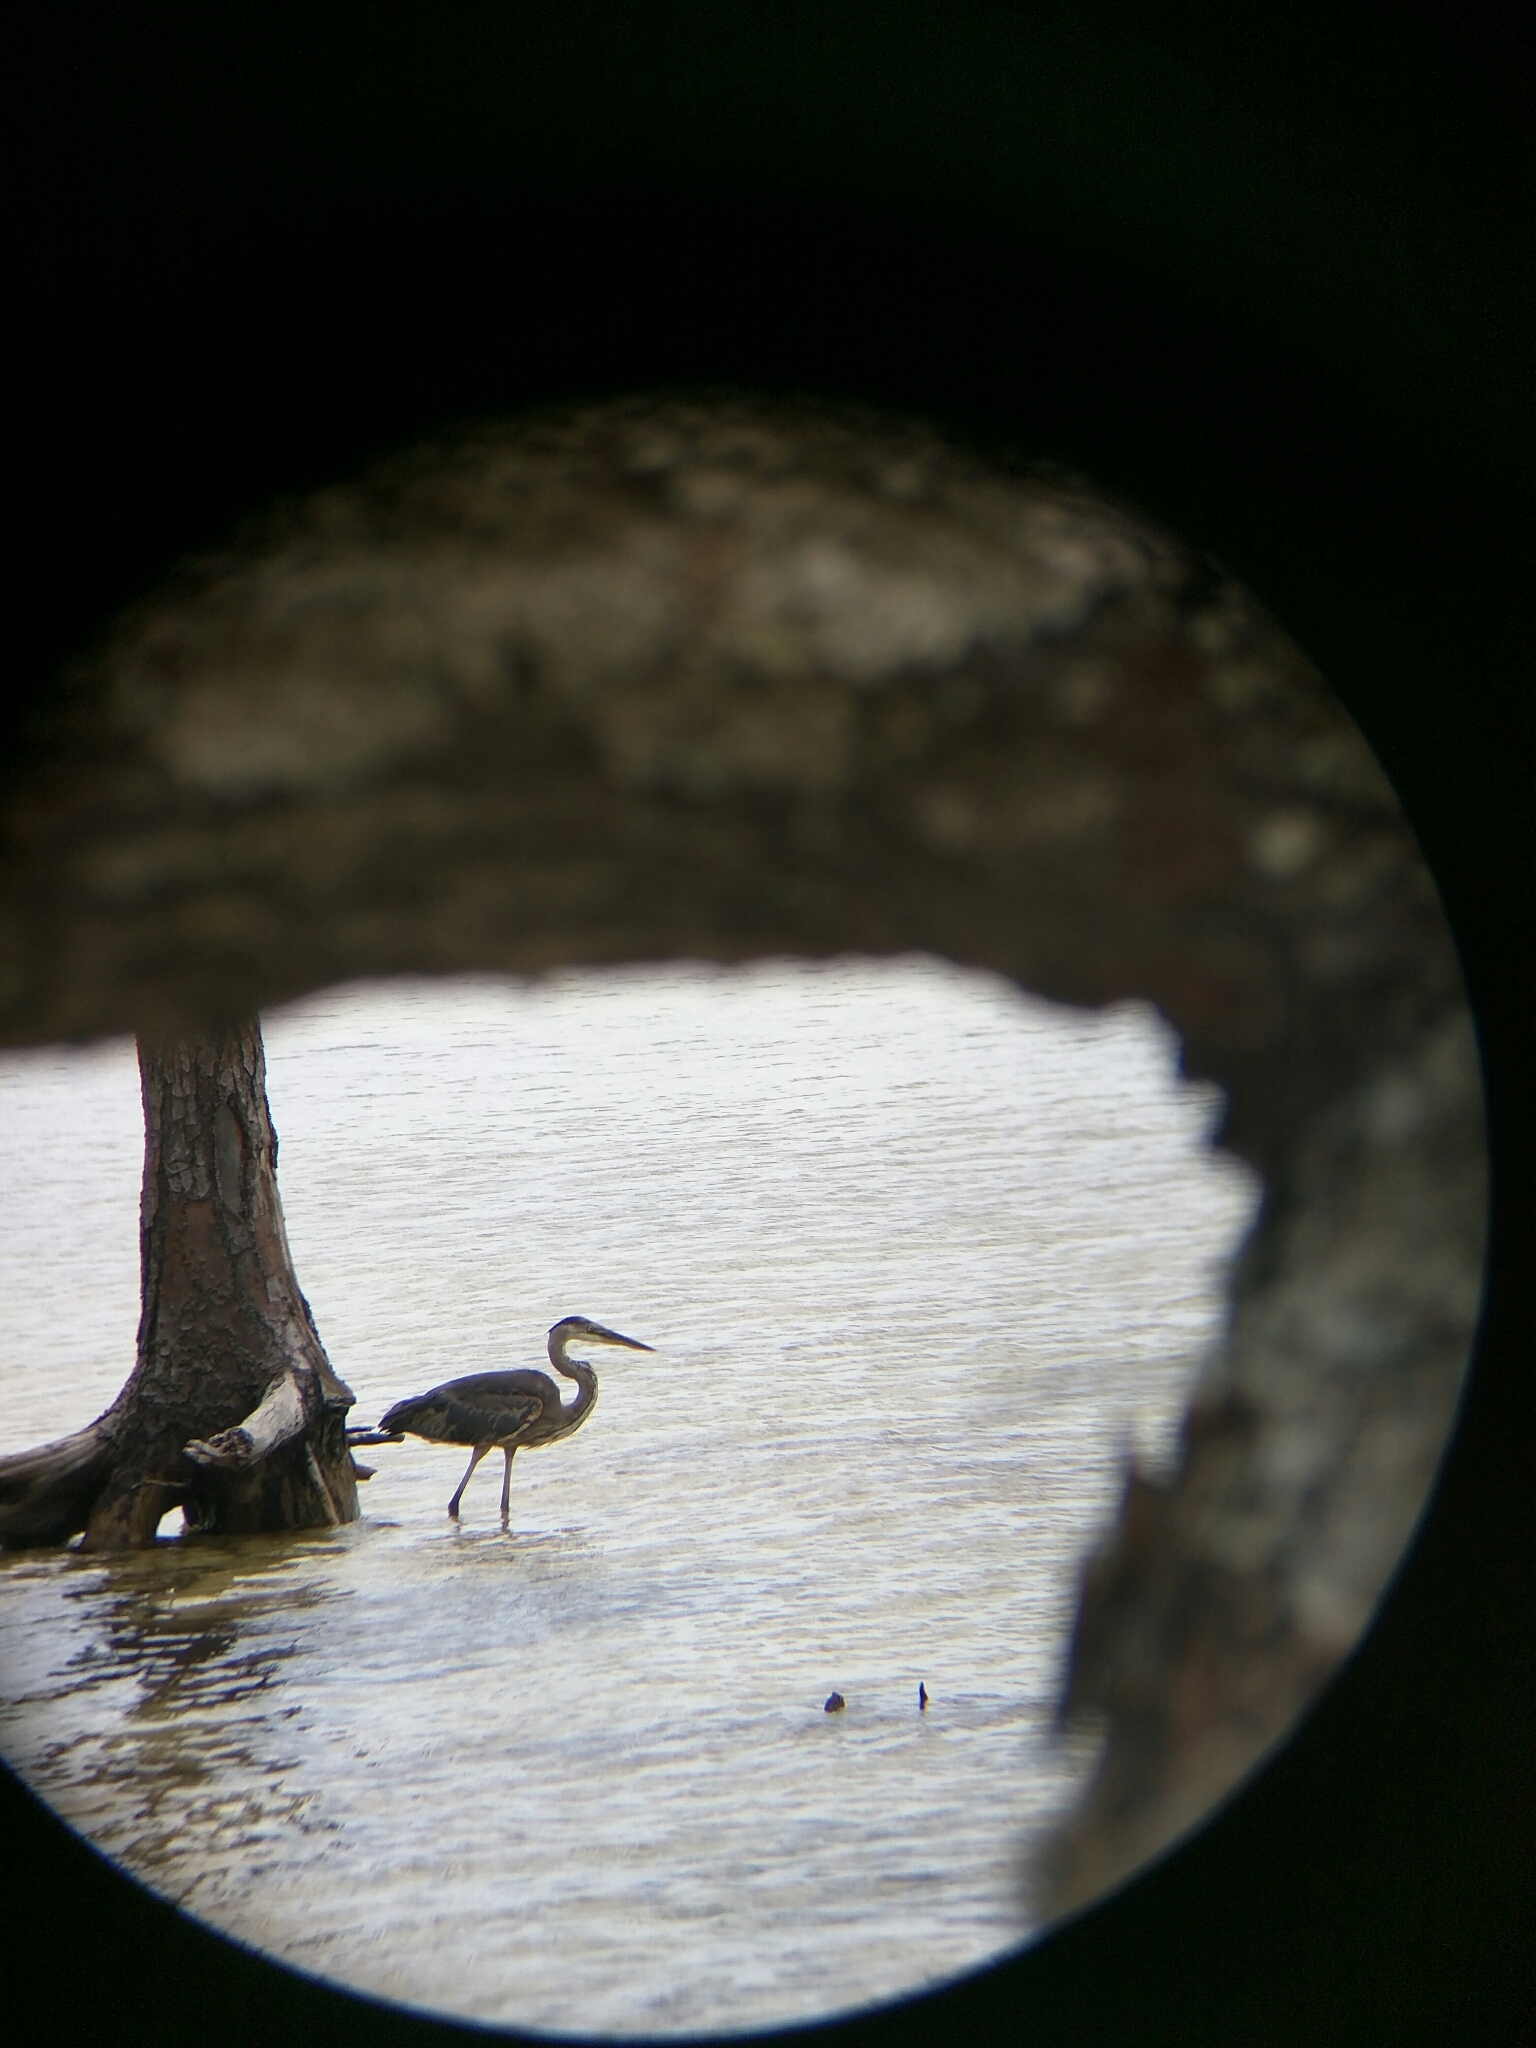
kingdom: Animalia
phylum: Chordata
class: Aves
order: Pelecaniformes
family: Ardeidae
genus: Ardea
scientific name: Ardea herodias
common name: Great blue heron
